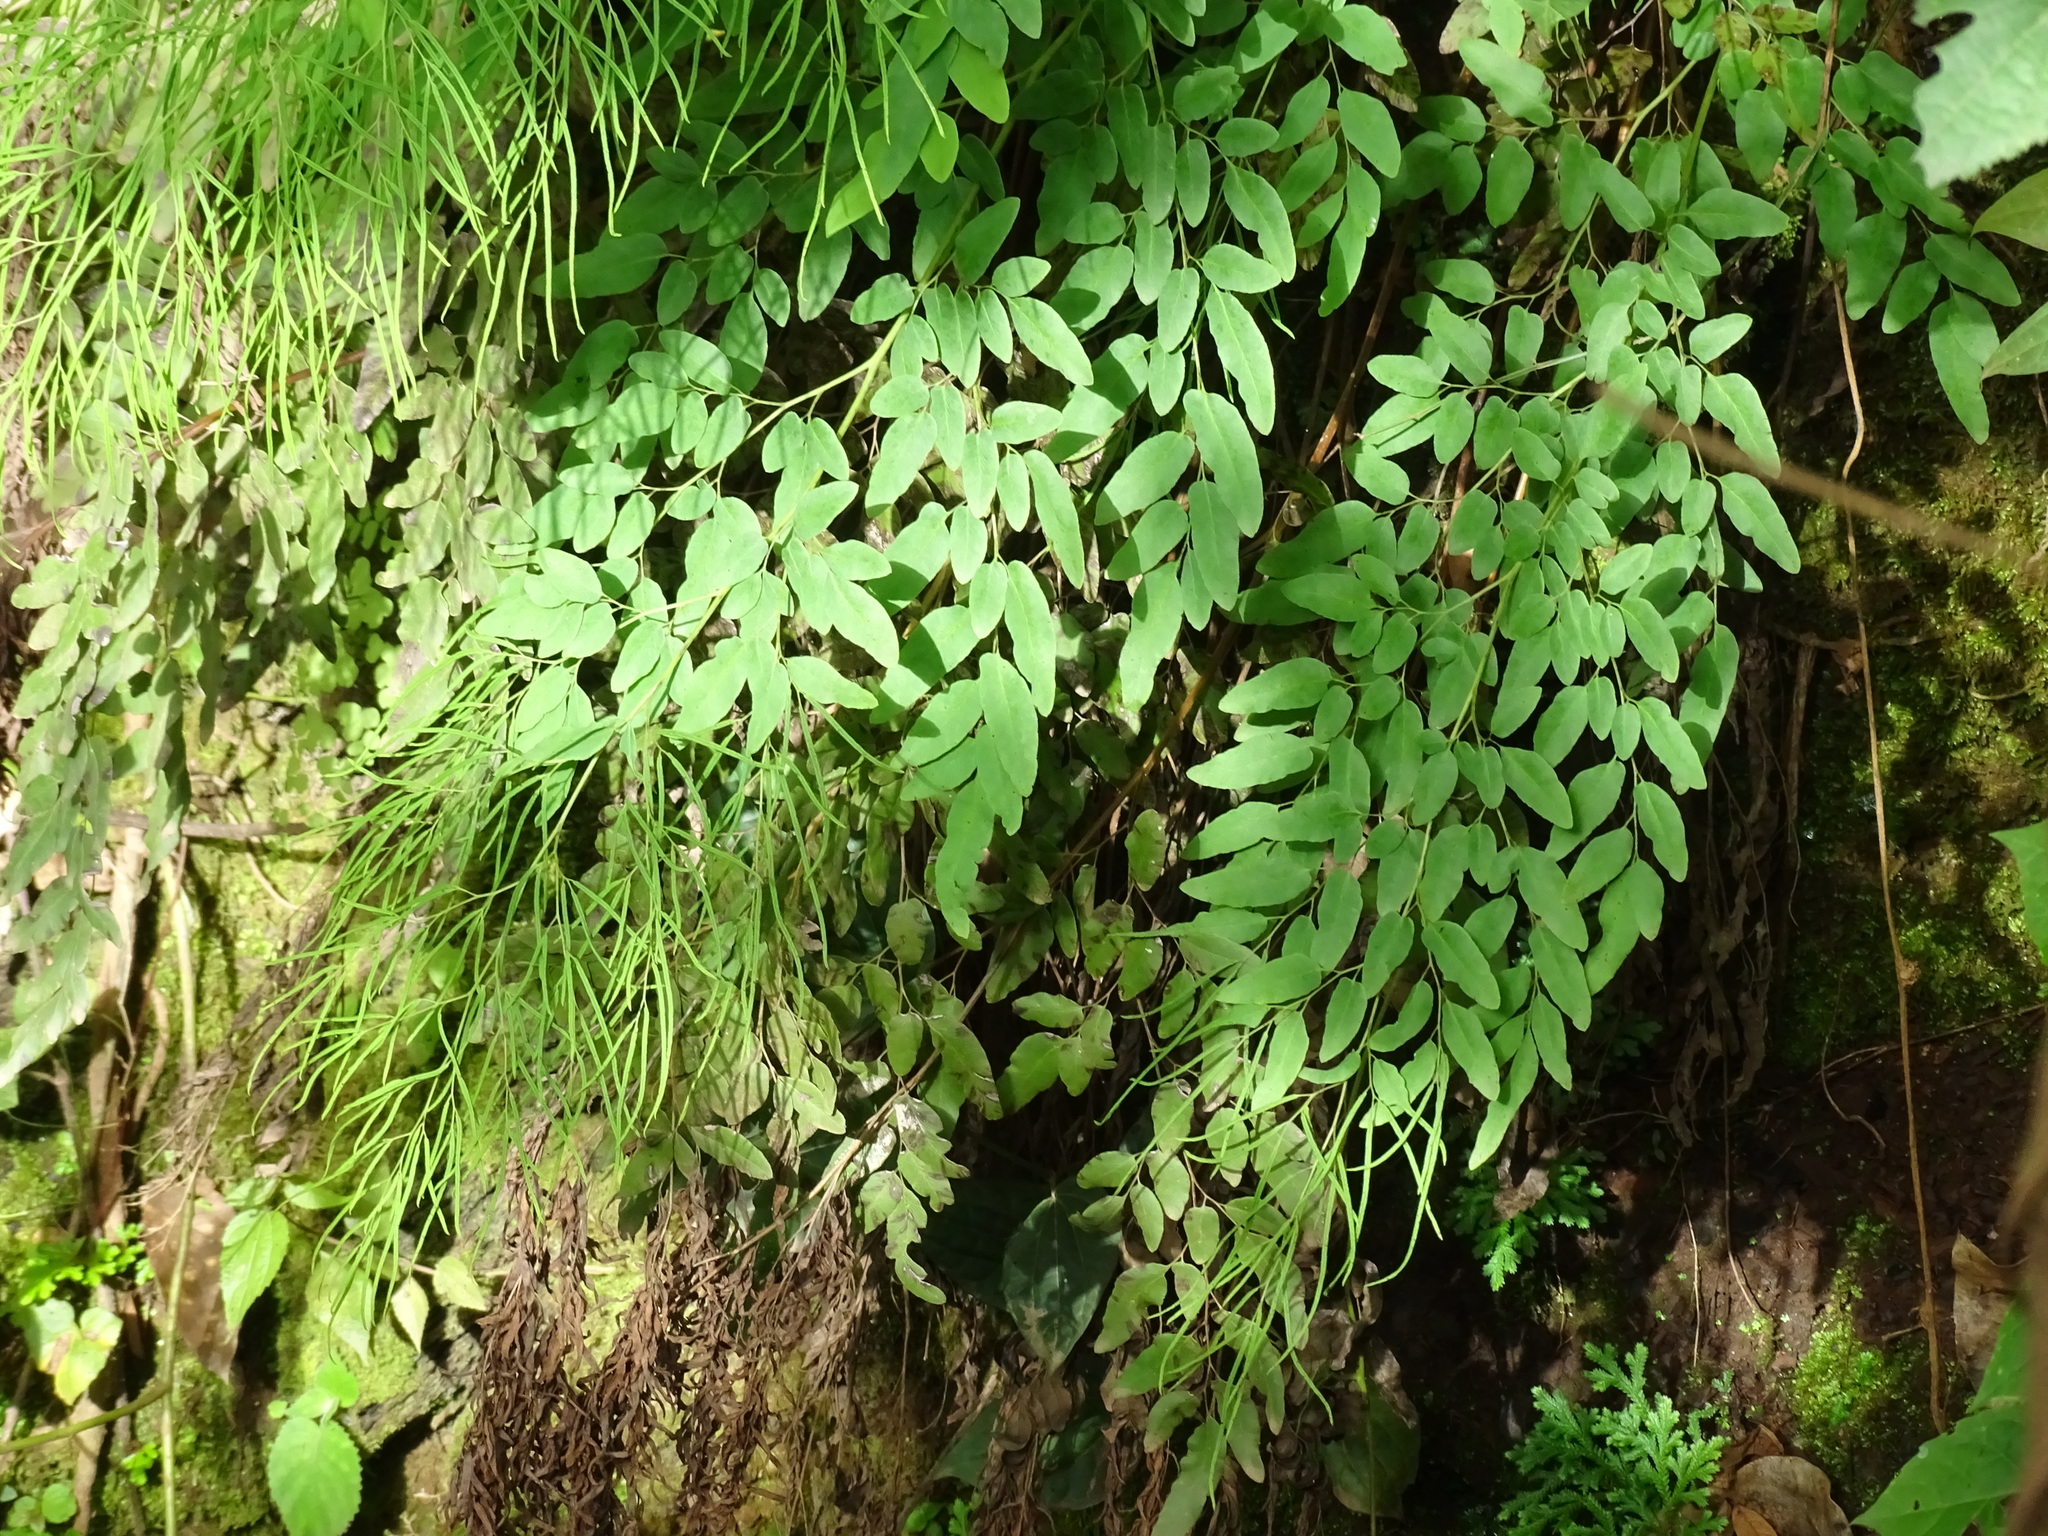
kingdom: Plantae
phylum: Tracheophyta
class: Polypodiopsida
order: Polypodiales
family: Pteridaceae
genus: Llavea
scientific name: Llavea cordifolia
